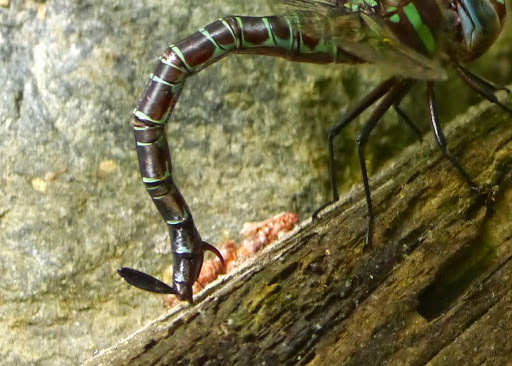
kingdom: Animalia
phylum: Arthropoda
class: Insecta
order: Odonata
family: Aeshnidae
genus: Epiaeschna
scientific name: Epiaeschna heros
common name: Swamp darner
